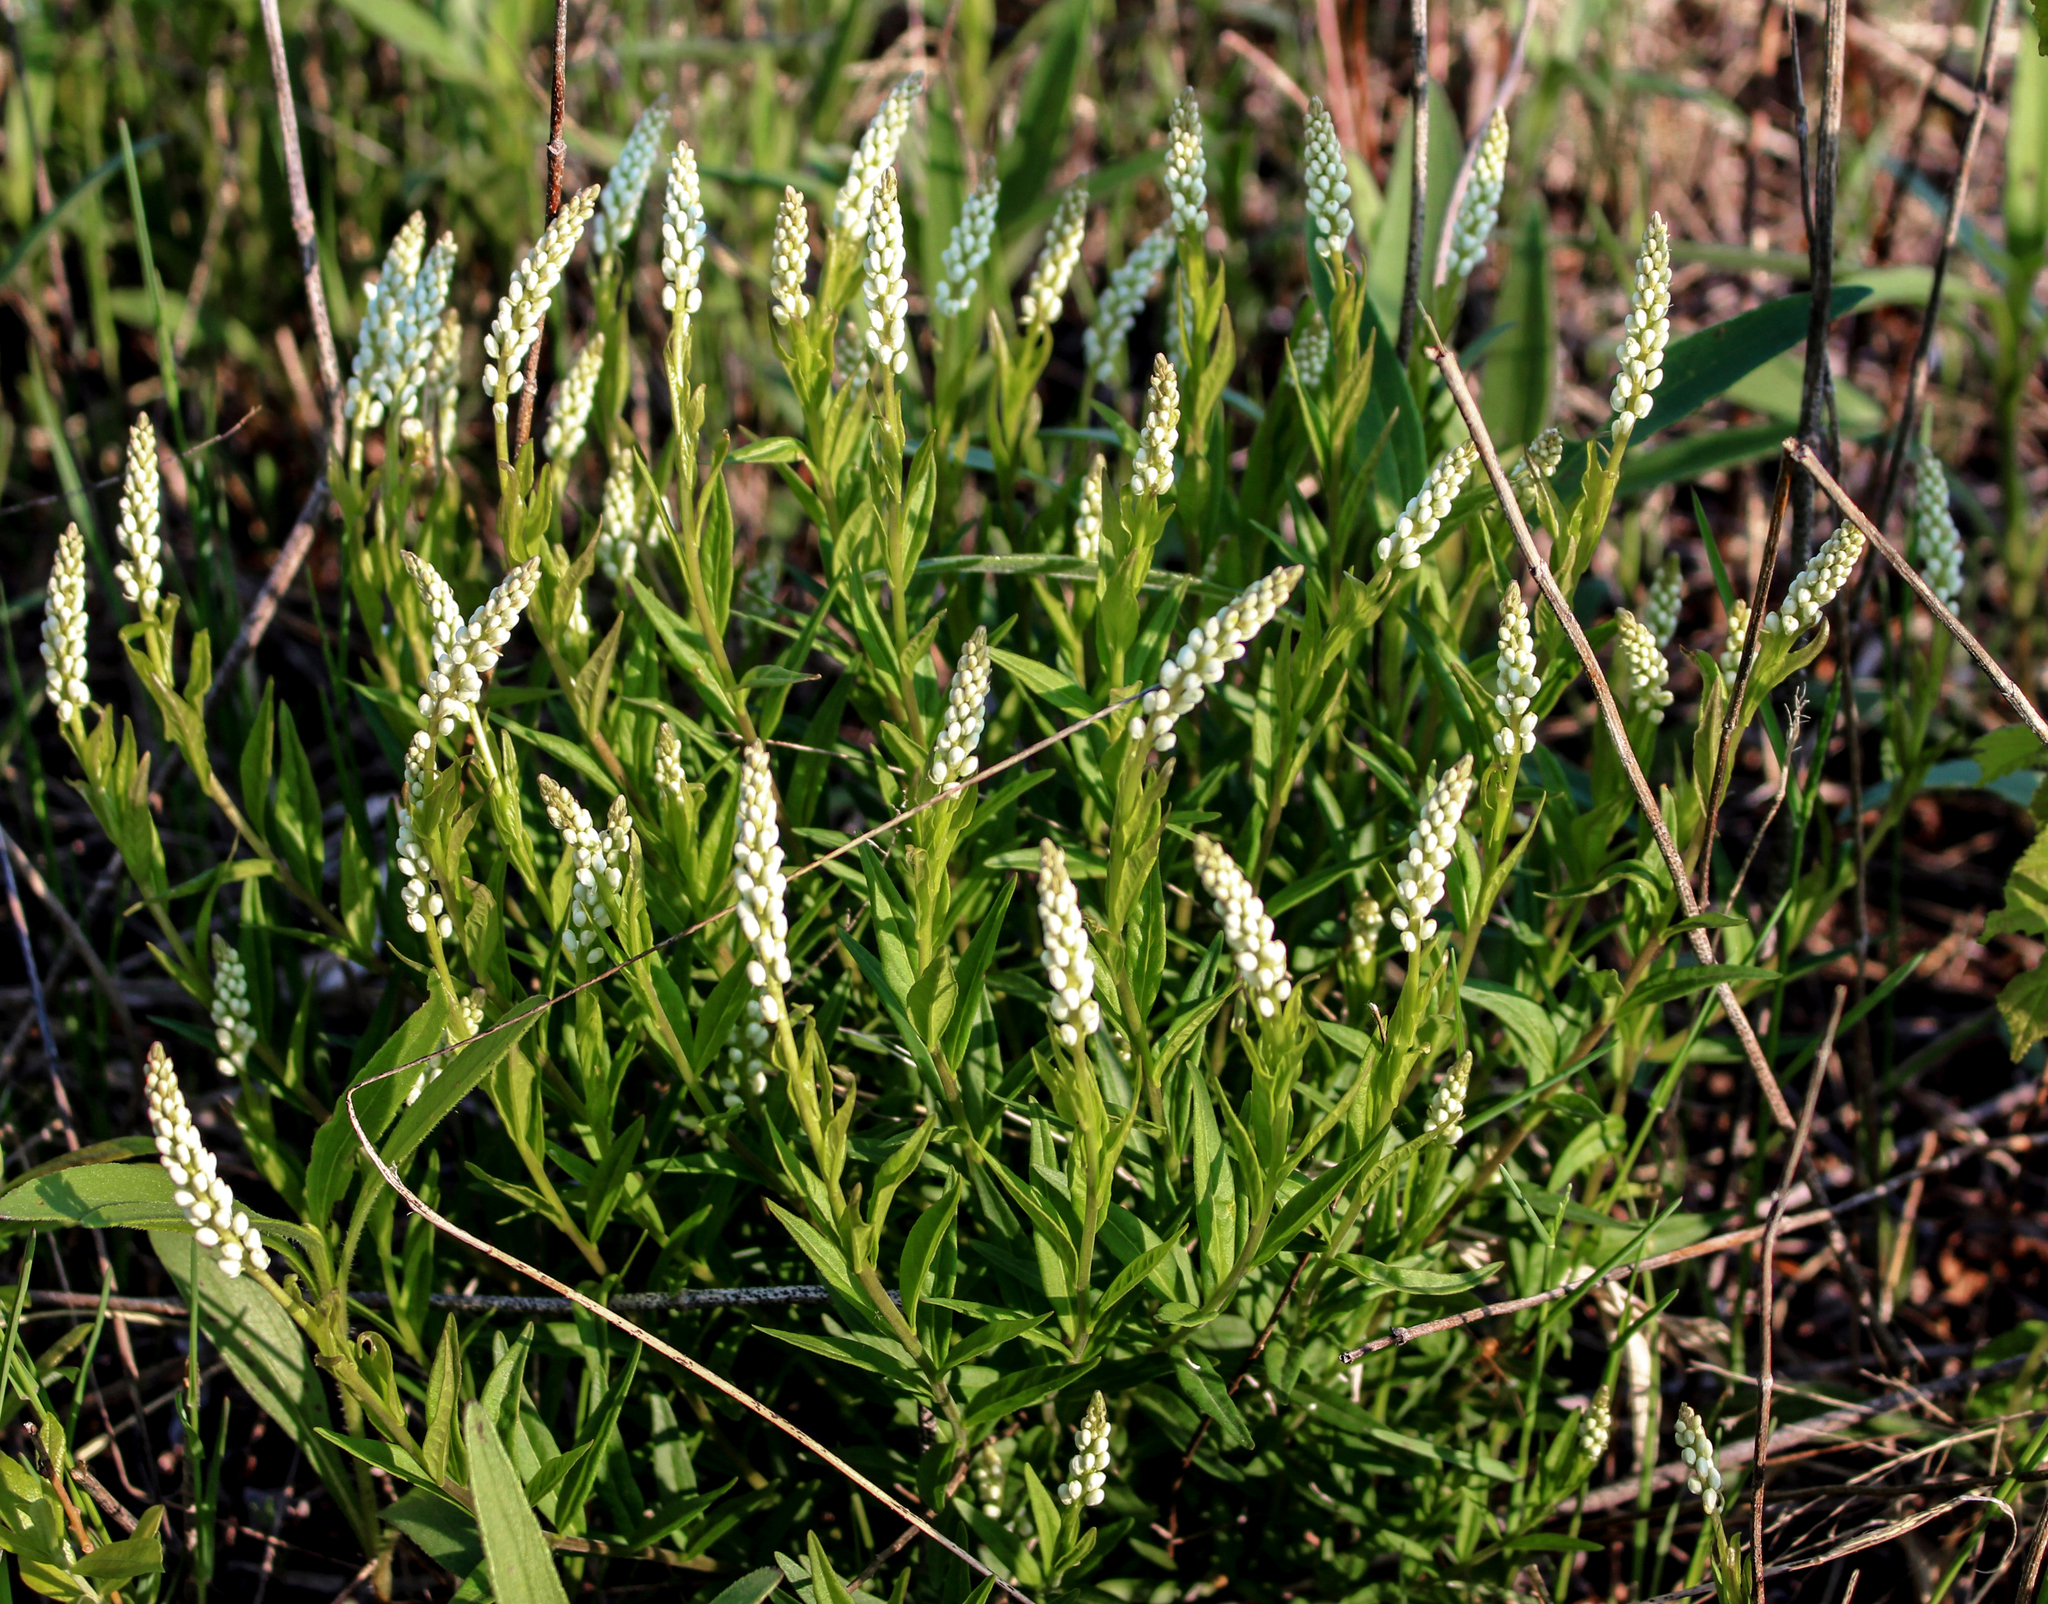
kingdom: Plantae
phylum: Tracheophyta
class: Magnoliopsida
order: Fabales
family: Polygalaceae
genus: Polygala
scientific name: Polygala senega
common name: Seneca snakeroot
